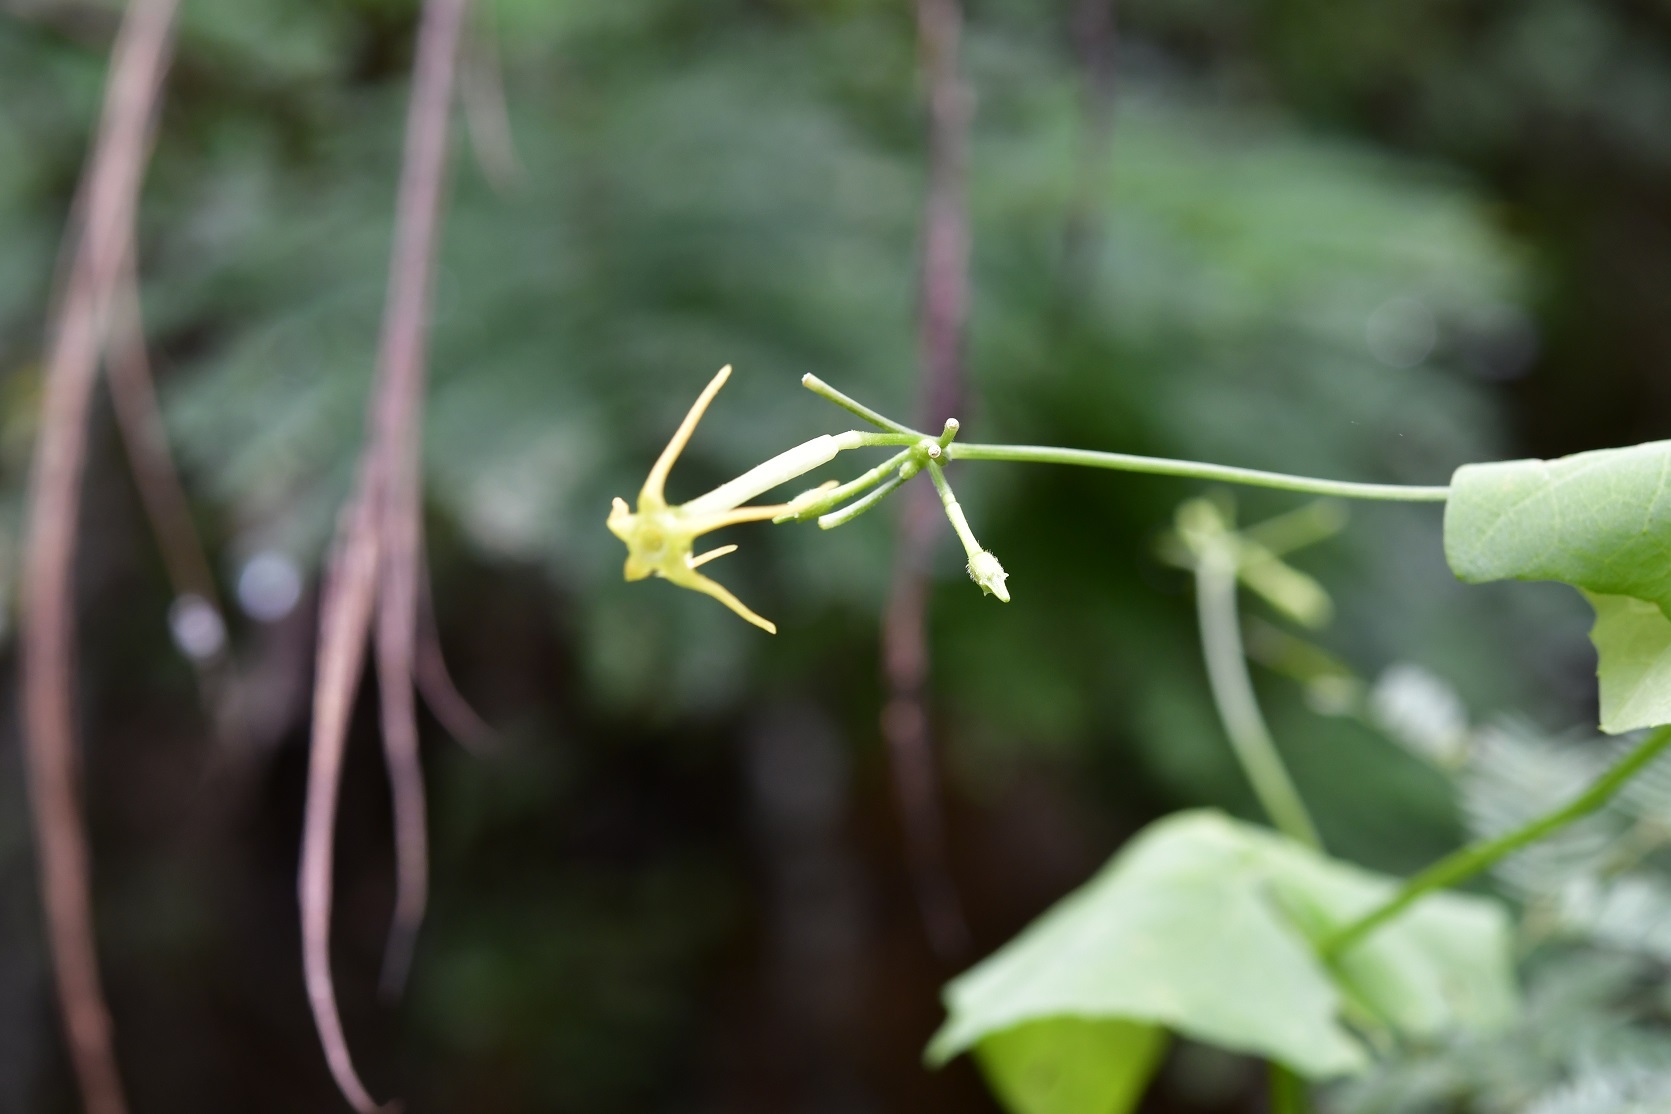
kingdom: Plantae
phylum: Tracheophyta
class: Magnoliopsida
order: Cucurbitales
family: Cucurbitaceae
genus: Cyclanthera
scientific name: Cyclanthera carthagenensis
